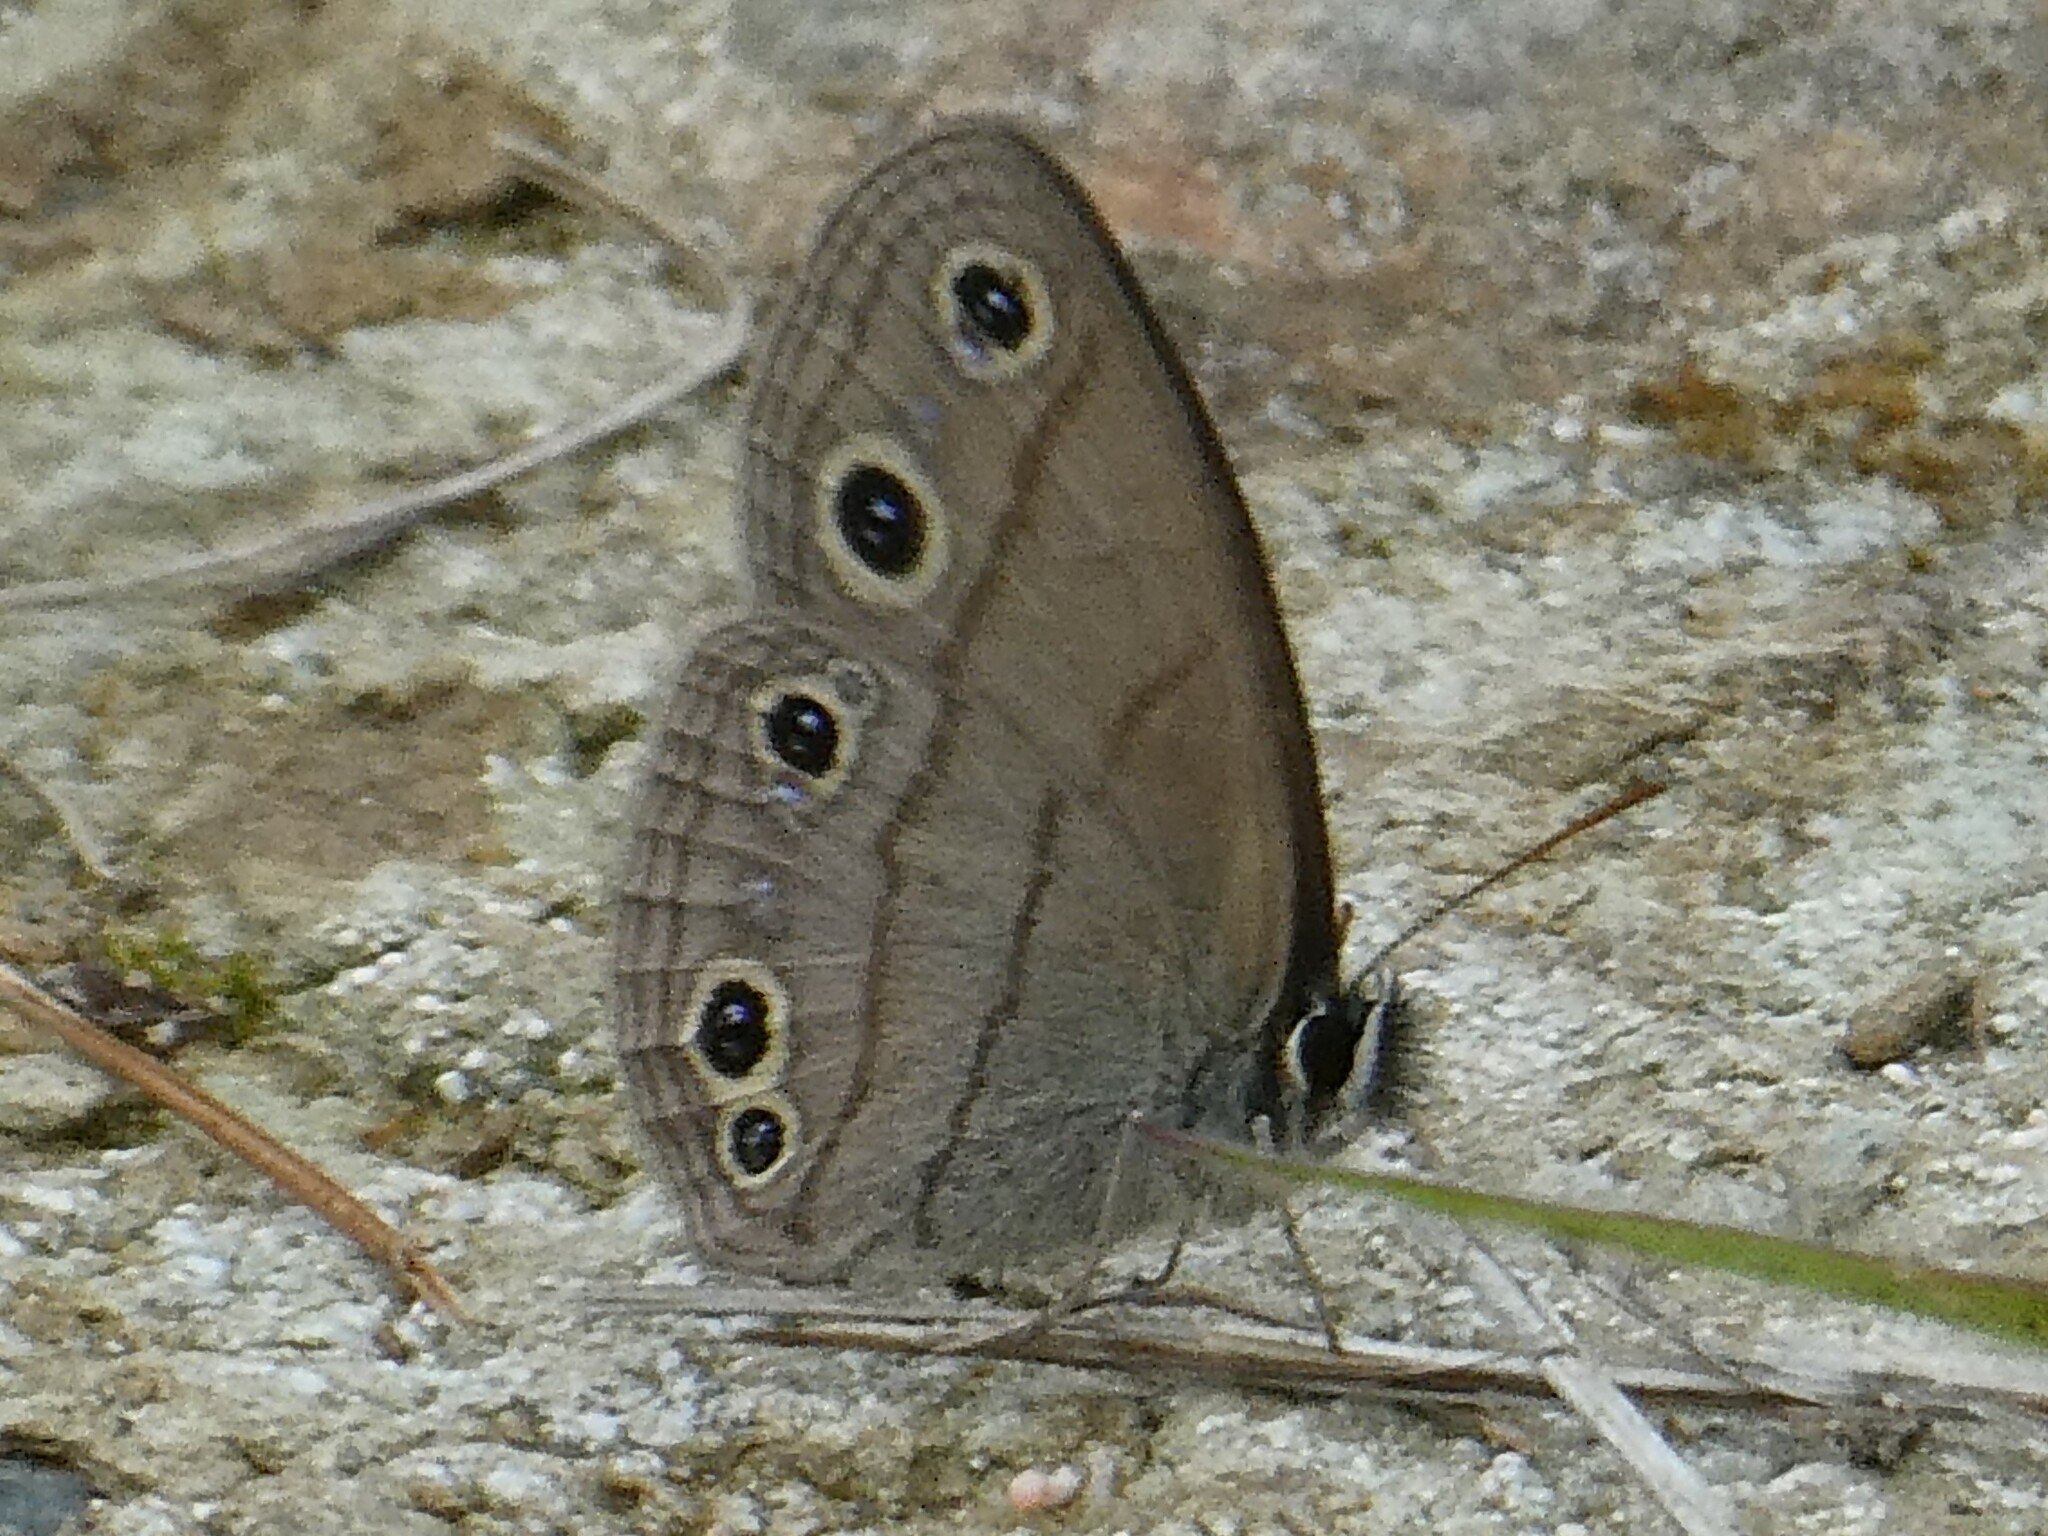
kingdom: Animalia
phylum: Arthropoda
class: Insecta
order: Lepidoptera
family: Nymphalidae
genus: Euptychia
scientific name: Euptychia cymela
